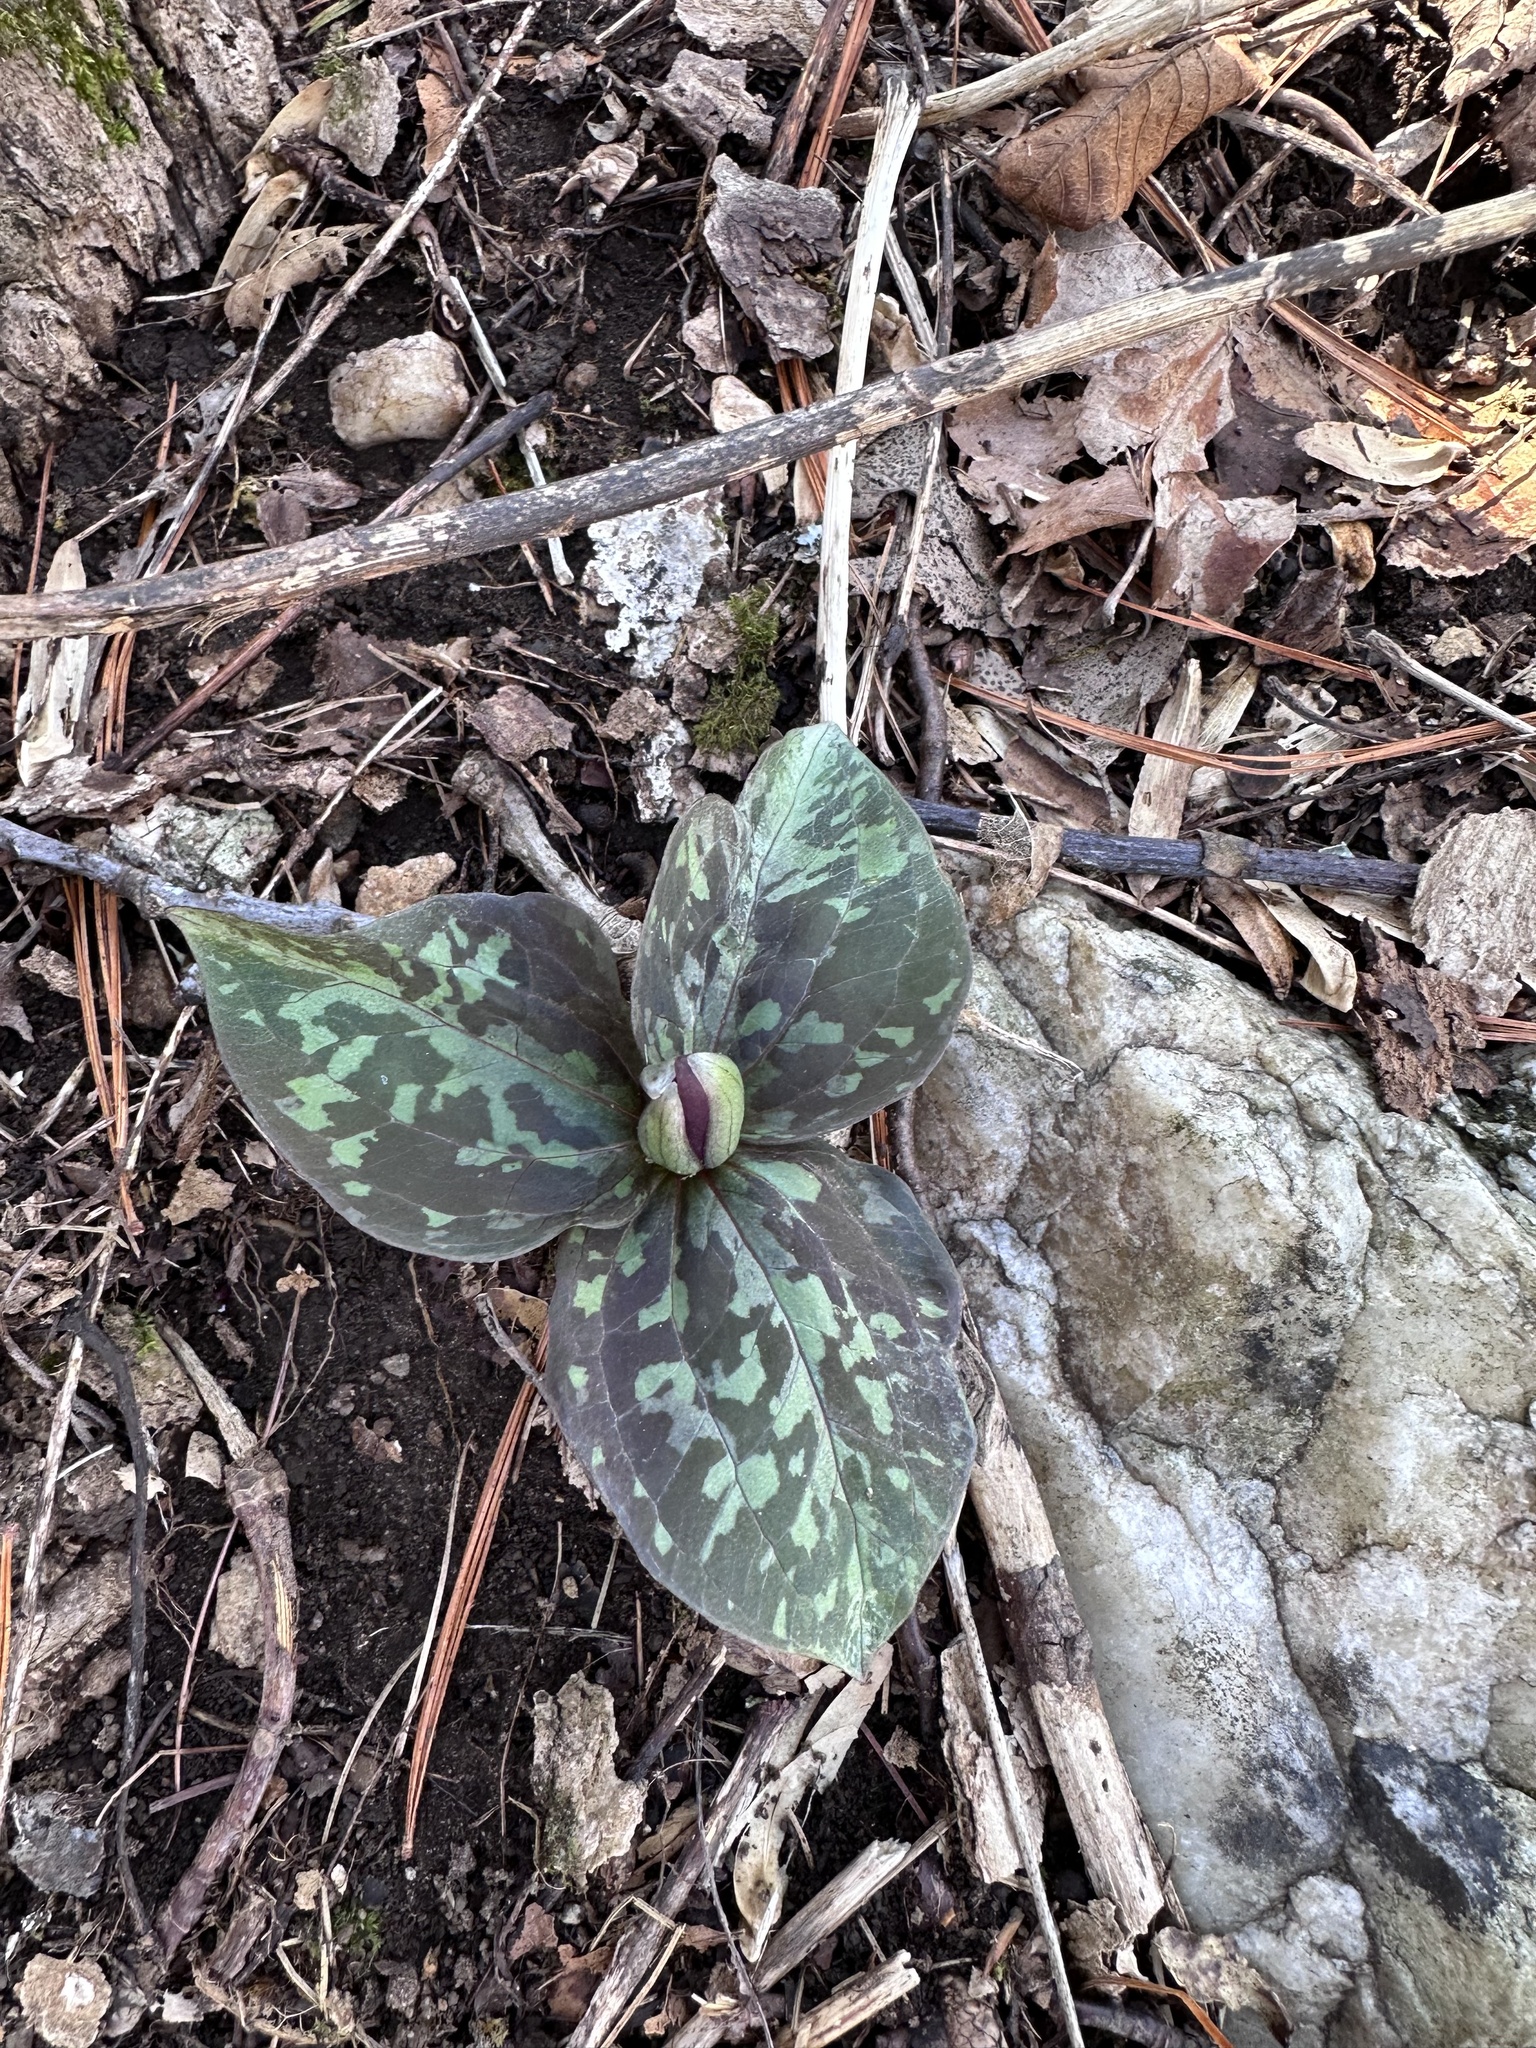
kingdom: Plantae
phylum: Tracheophyta
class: Liliopsida
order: Liliales
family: Melanthiaceae
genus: Trillium
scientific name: Trillium cuneatum
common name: Cuneate trillium
